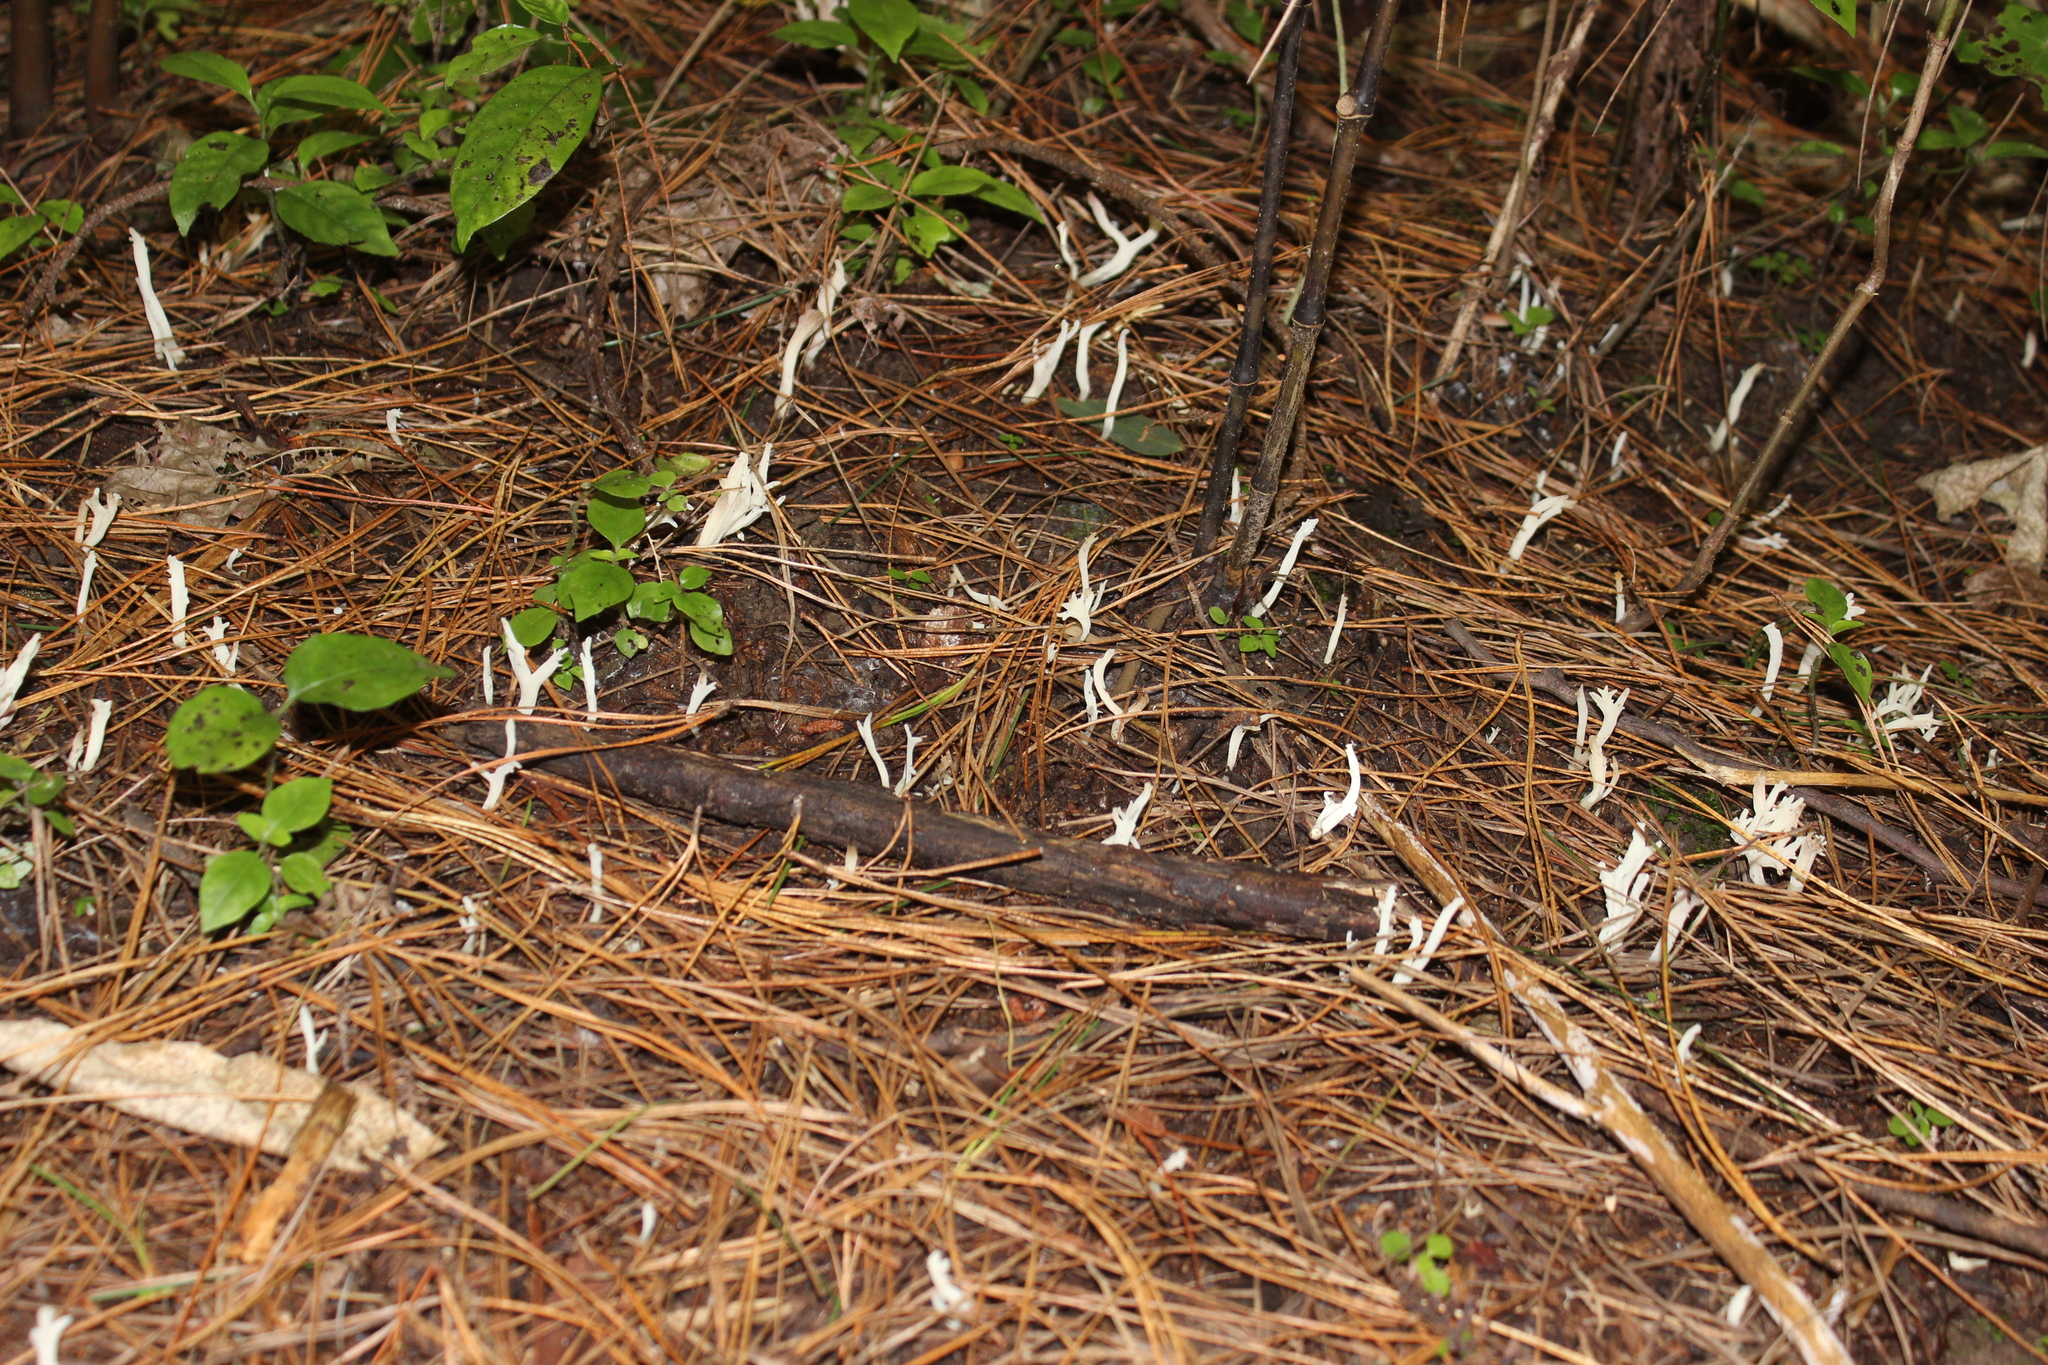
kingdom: Fungi
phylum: Basidiomycota
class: Agaricomycetes
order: Cantharellales
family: Hydnaceae
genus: Clavulina
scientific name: Clavulina rugosa
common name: Wrinkled club
